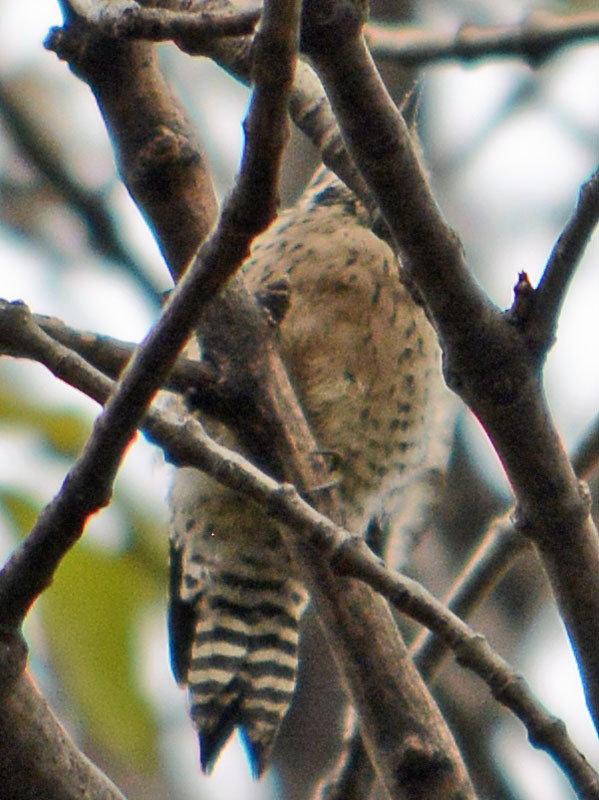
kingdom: Animalia
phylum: Chordata
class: Aves
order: Piciformes
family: Picidae
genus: Dryobates
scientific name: Dryobates scalaris
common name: Ladder-backed woodpecker
